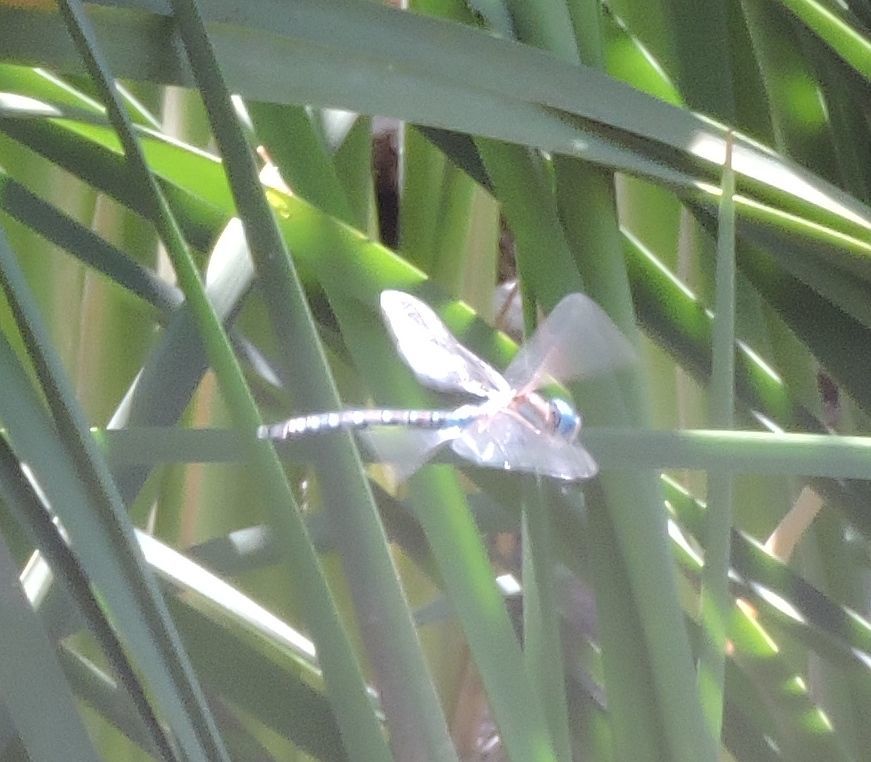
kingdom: Animalia
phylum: Arthropoda
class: Insecta
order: Odonata
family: Aeshnidae
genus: Rhionaeschna
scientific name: Rhionaeschna multicolor
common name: Blue-eyed darner
